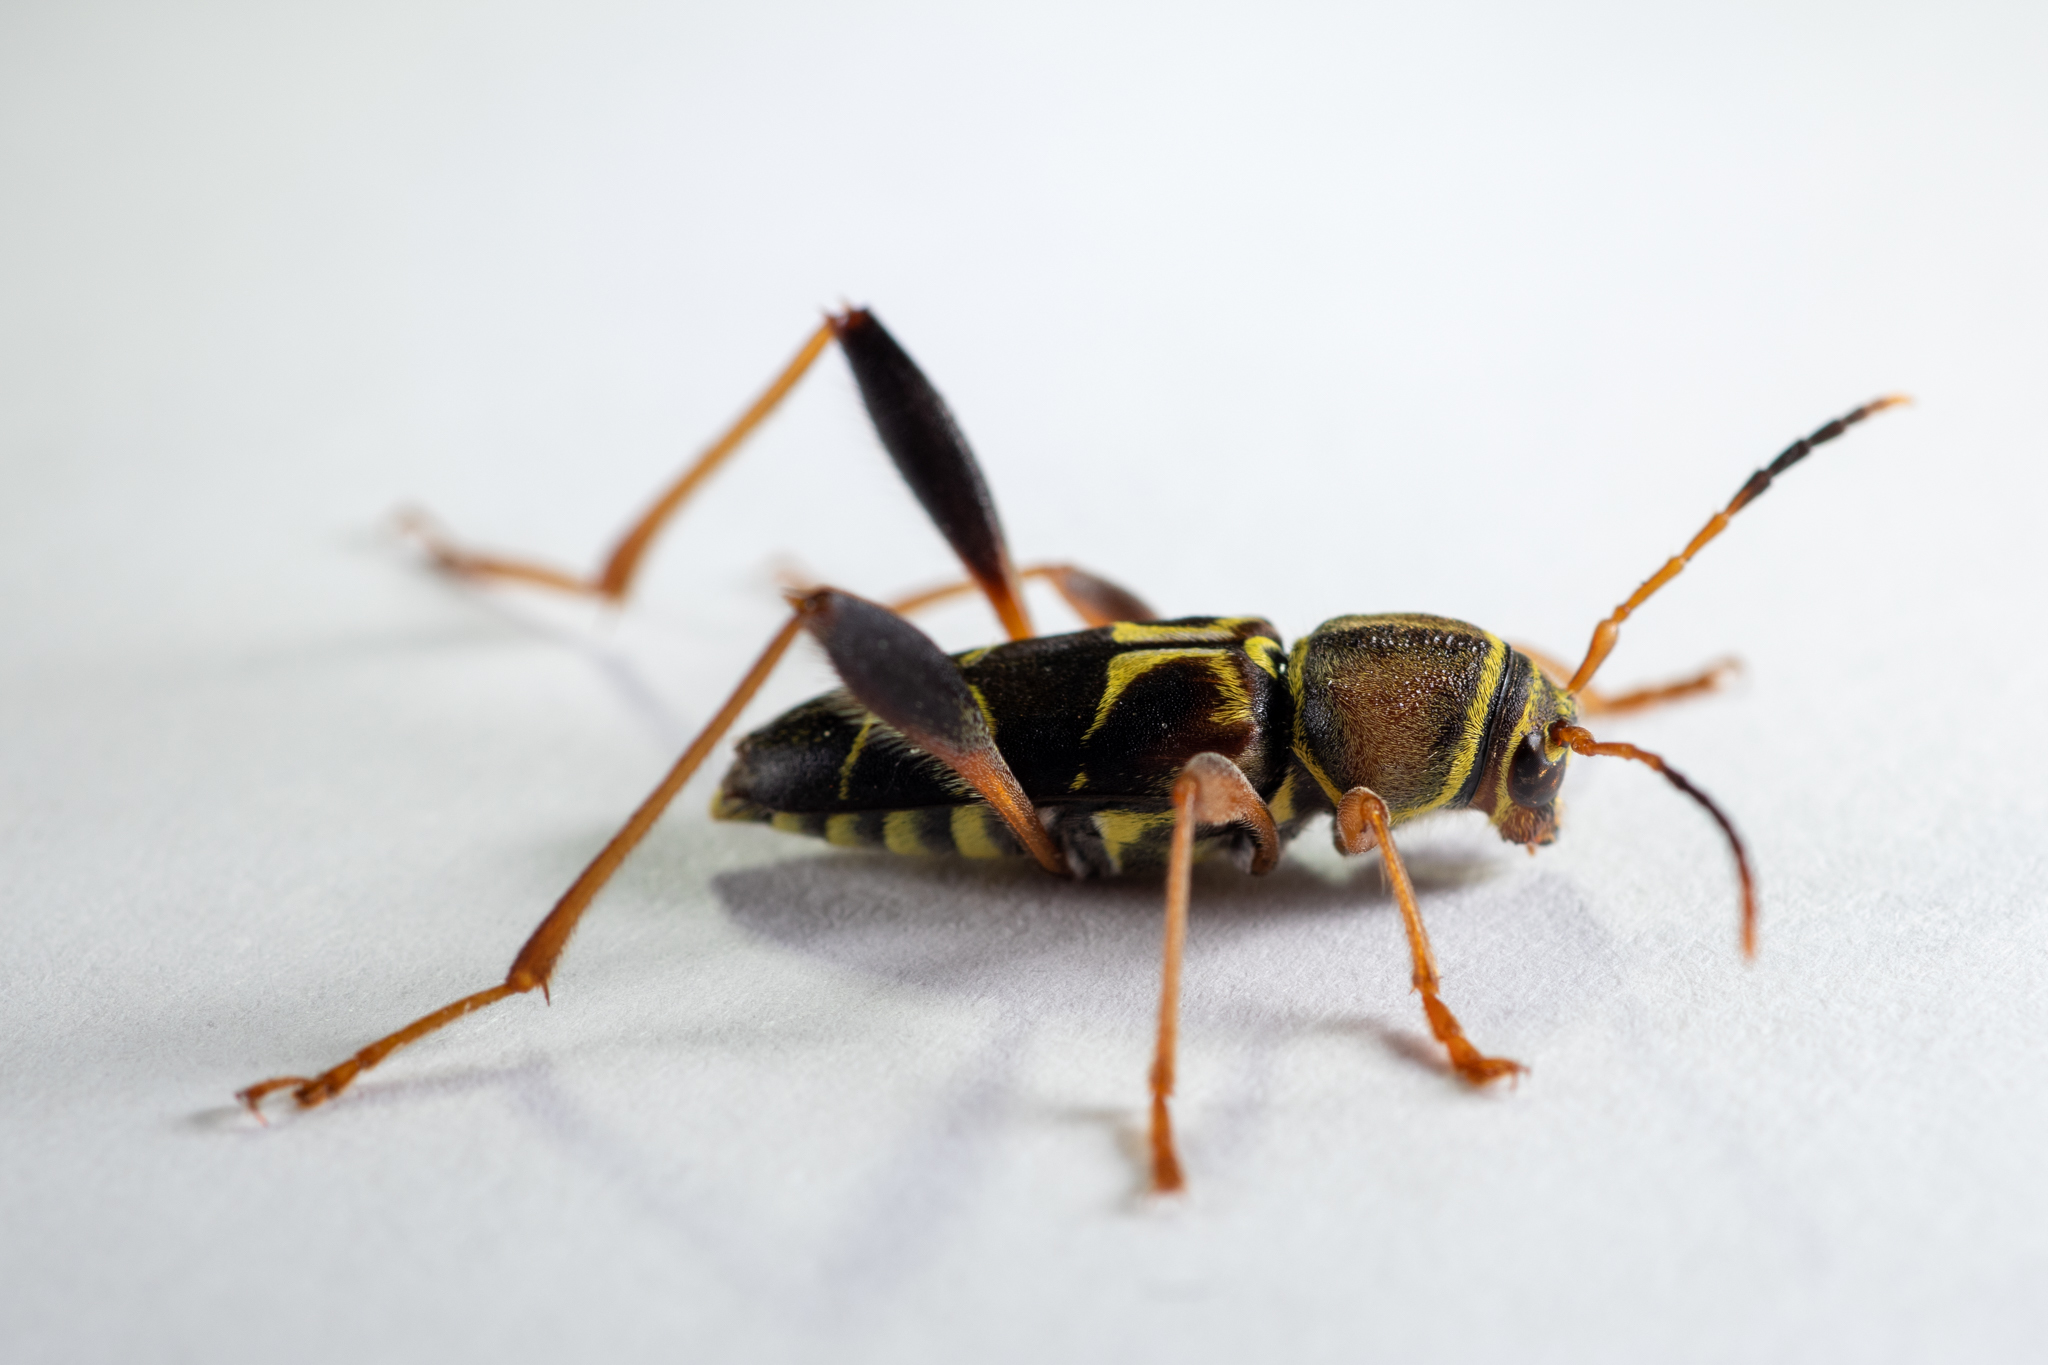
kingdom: Animalia
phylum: Arthropoda
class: Insecta
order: Coleoptera
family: Cerambycidae
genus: Neoclytus
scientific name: Neoclytus mucronatus
